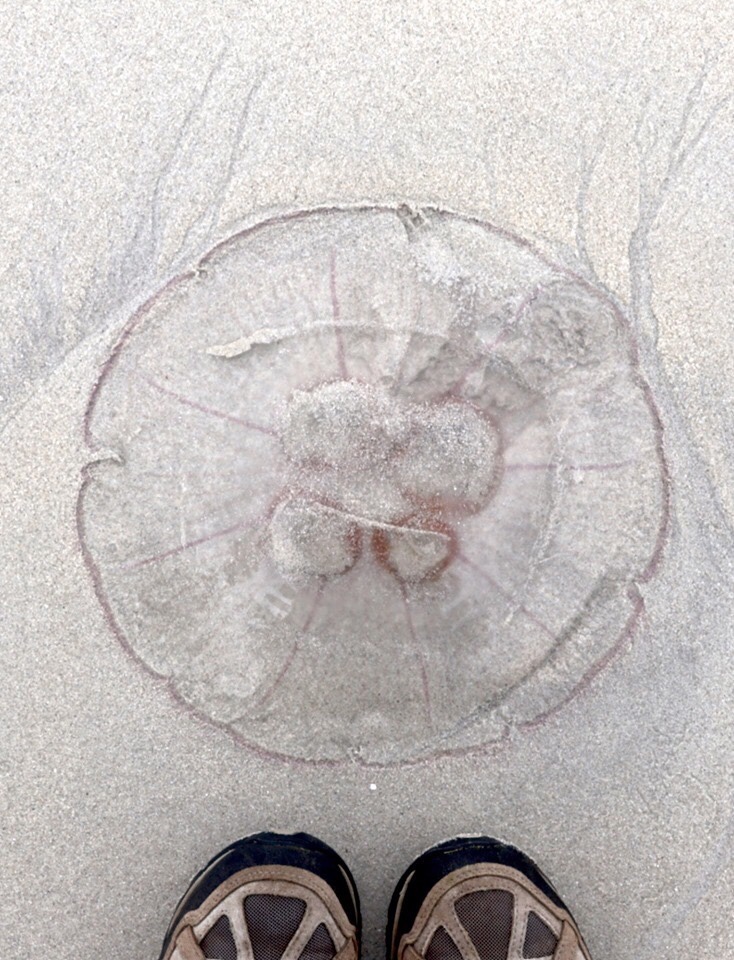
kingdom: Animalia
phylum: Cnidaria
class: Scyphozoa
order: Semaeostomeae
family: Ulmaridae
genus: Aurelia
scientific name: Aurelia aurita
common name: Moon jellyfish
